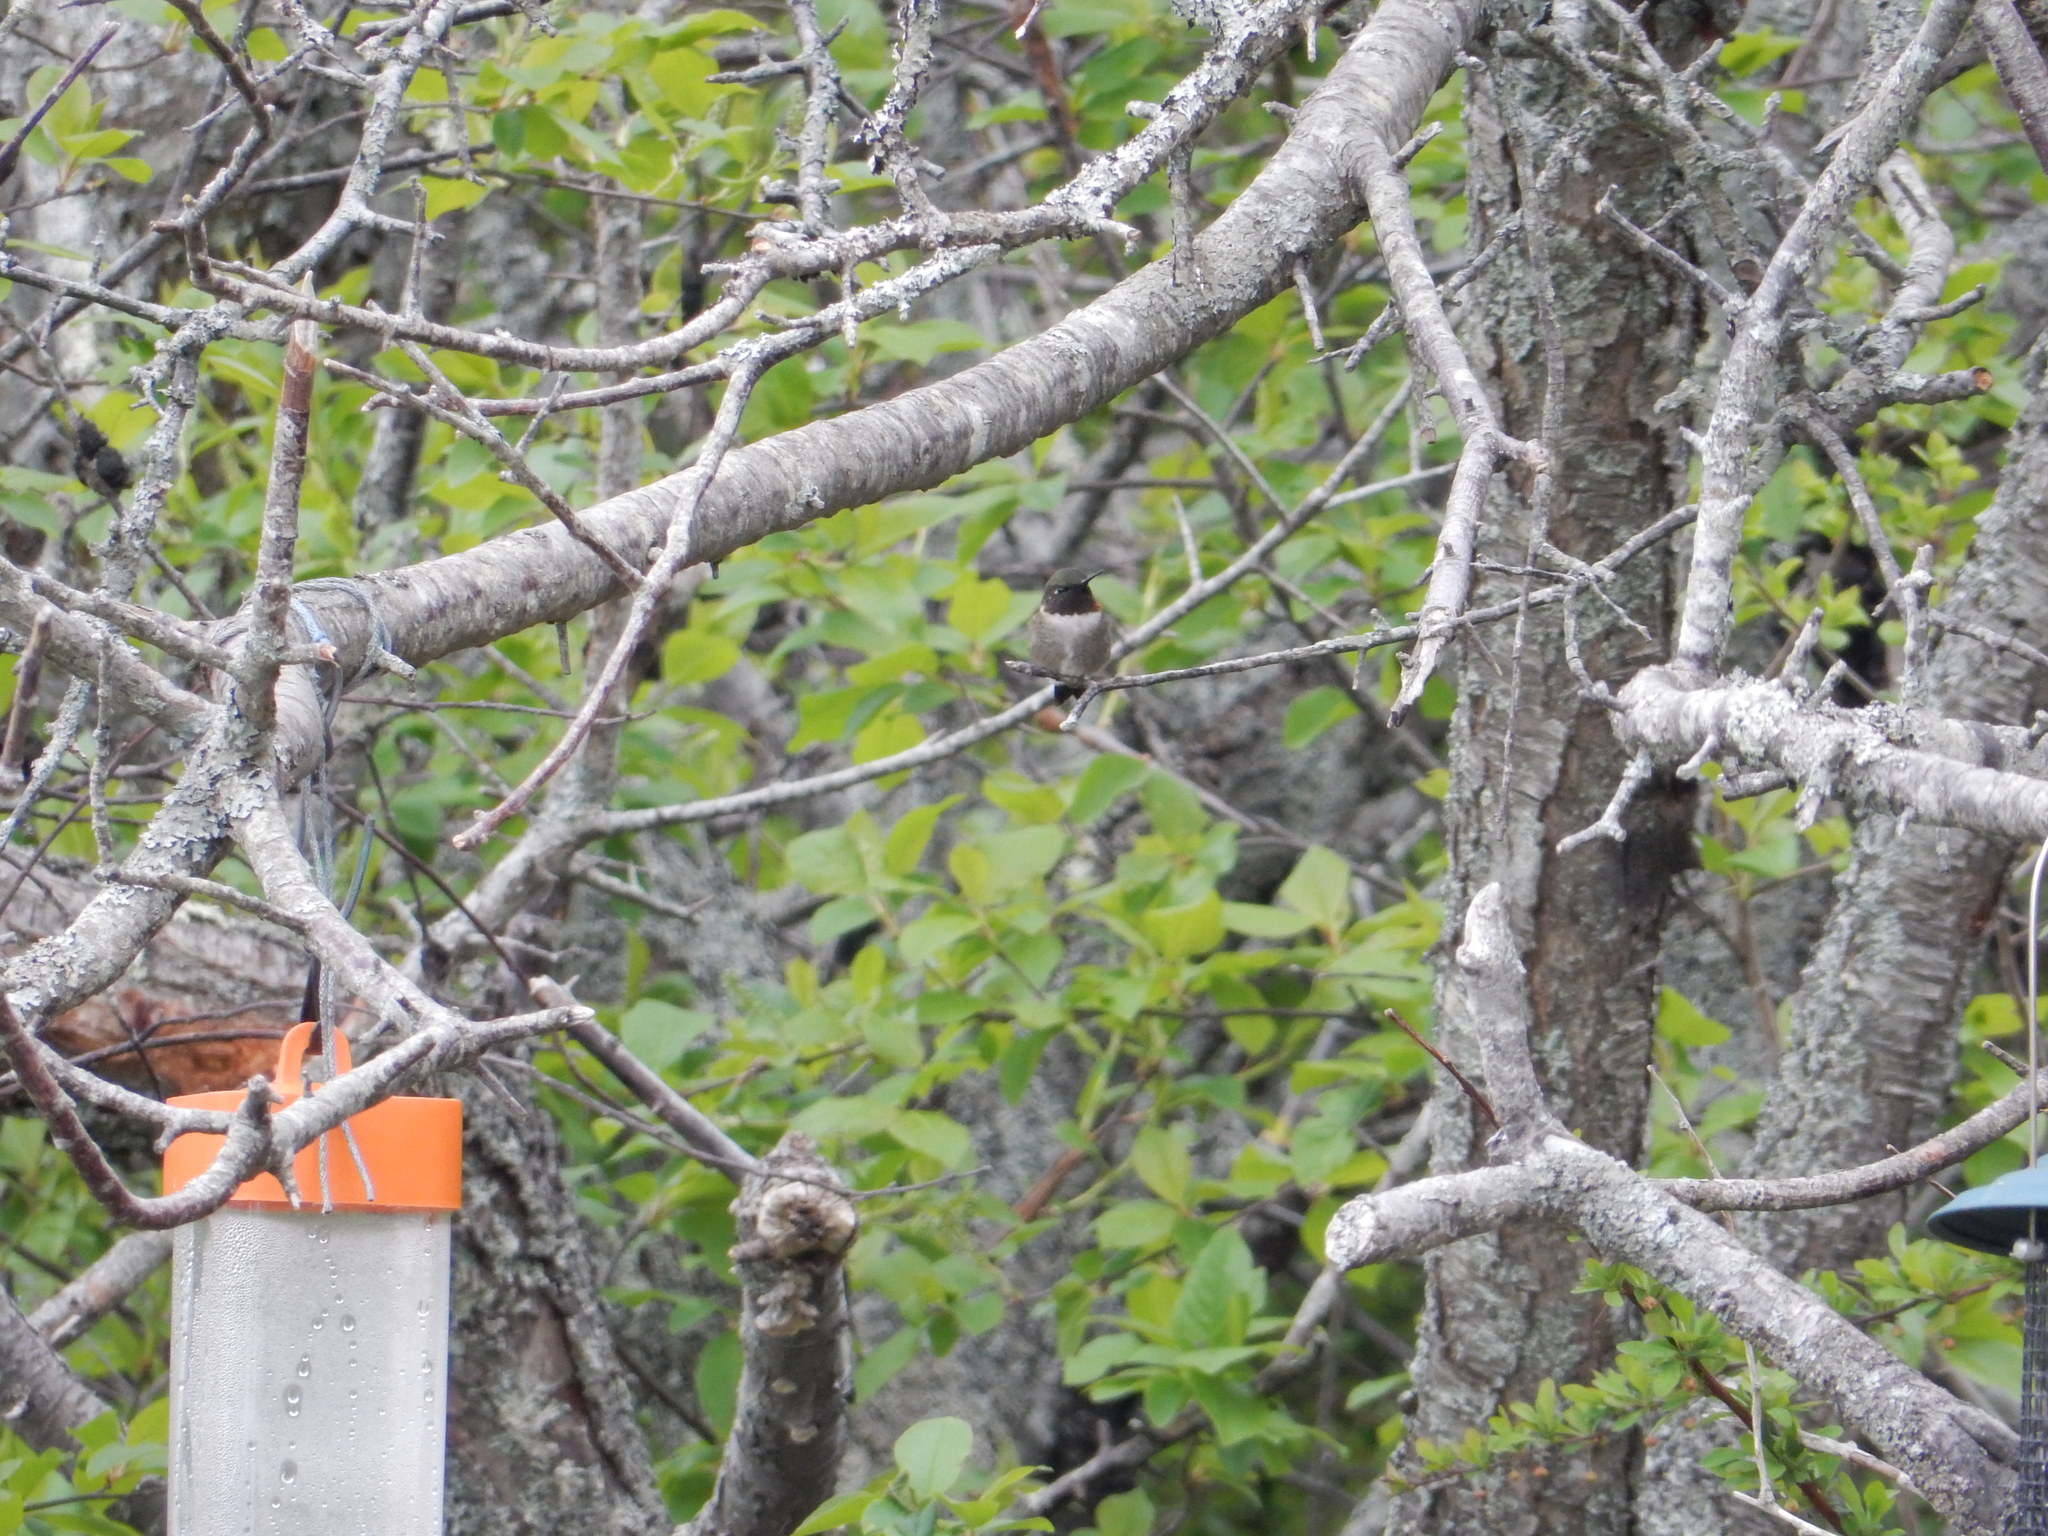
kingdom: Animalia
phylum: Chordata
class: Aves
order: Apodiformes
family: Trochilidae
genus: Archilochus
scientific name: Archilochus colubris
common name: Ruby-throated hummingbird
